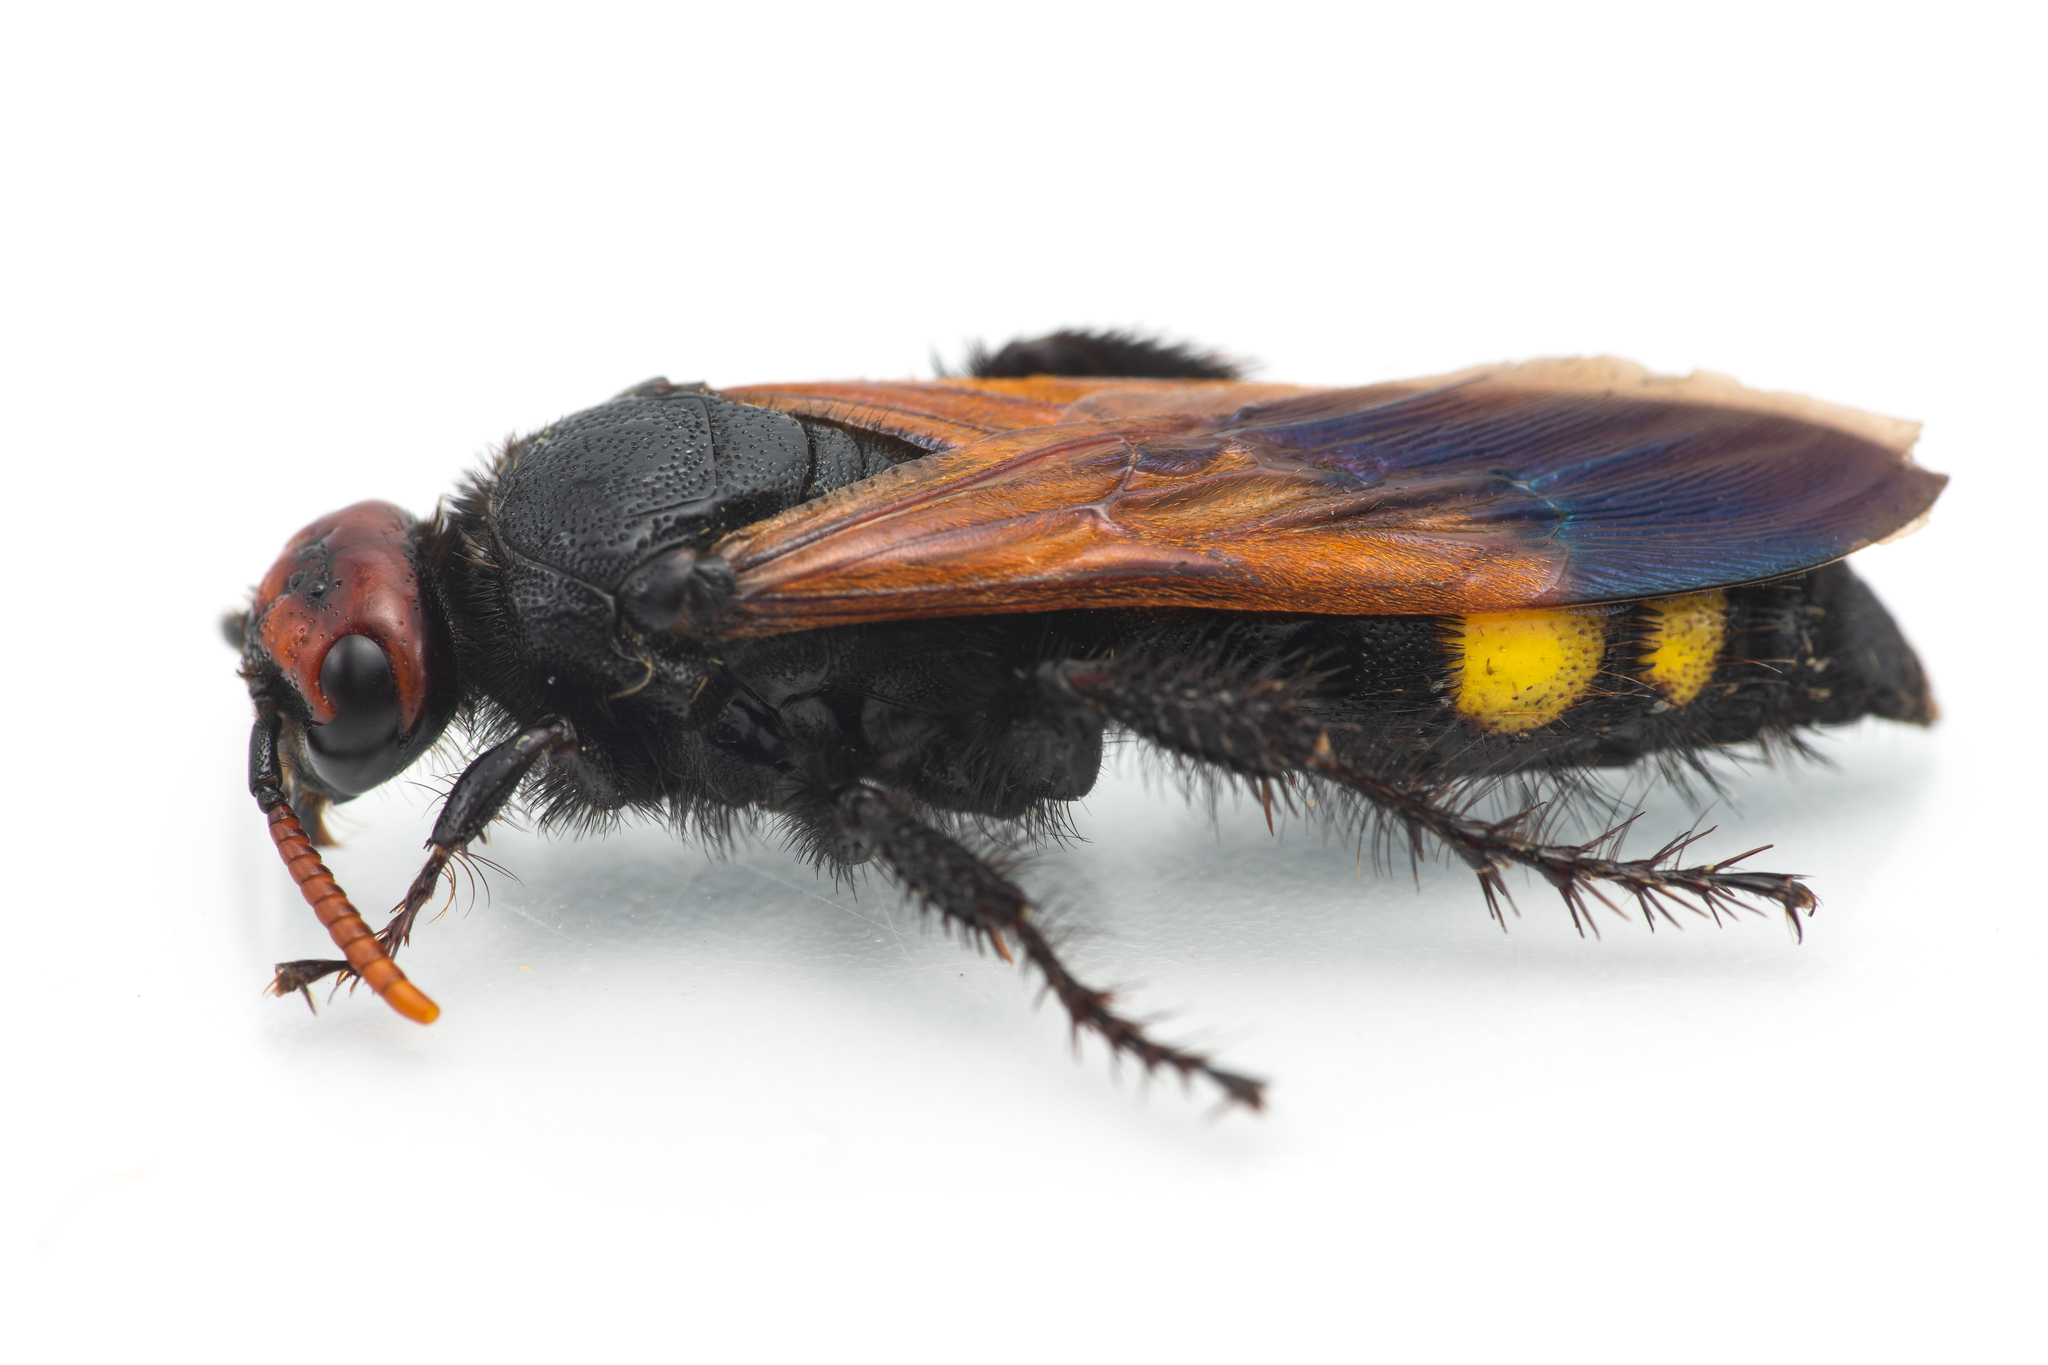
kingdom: Animalia
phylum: Arthropoda
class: Insecta
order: Hymenoptera
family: Scoliidae
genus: Scolia
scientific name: Scolia erythrocephala
